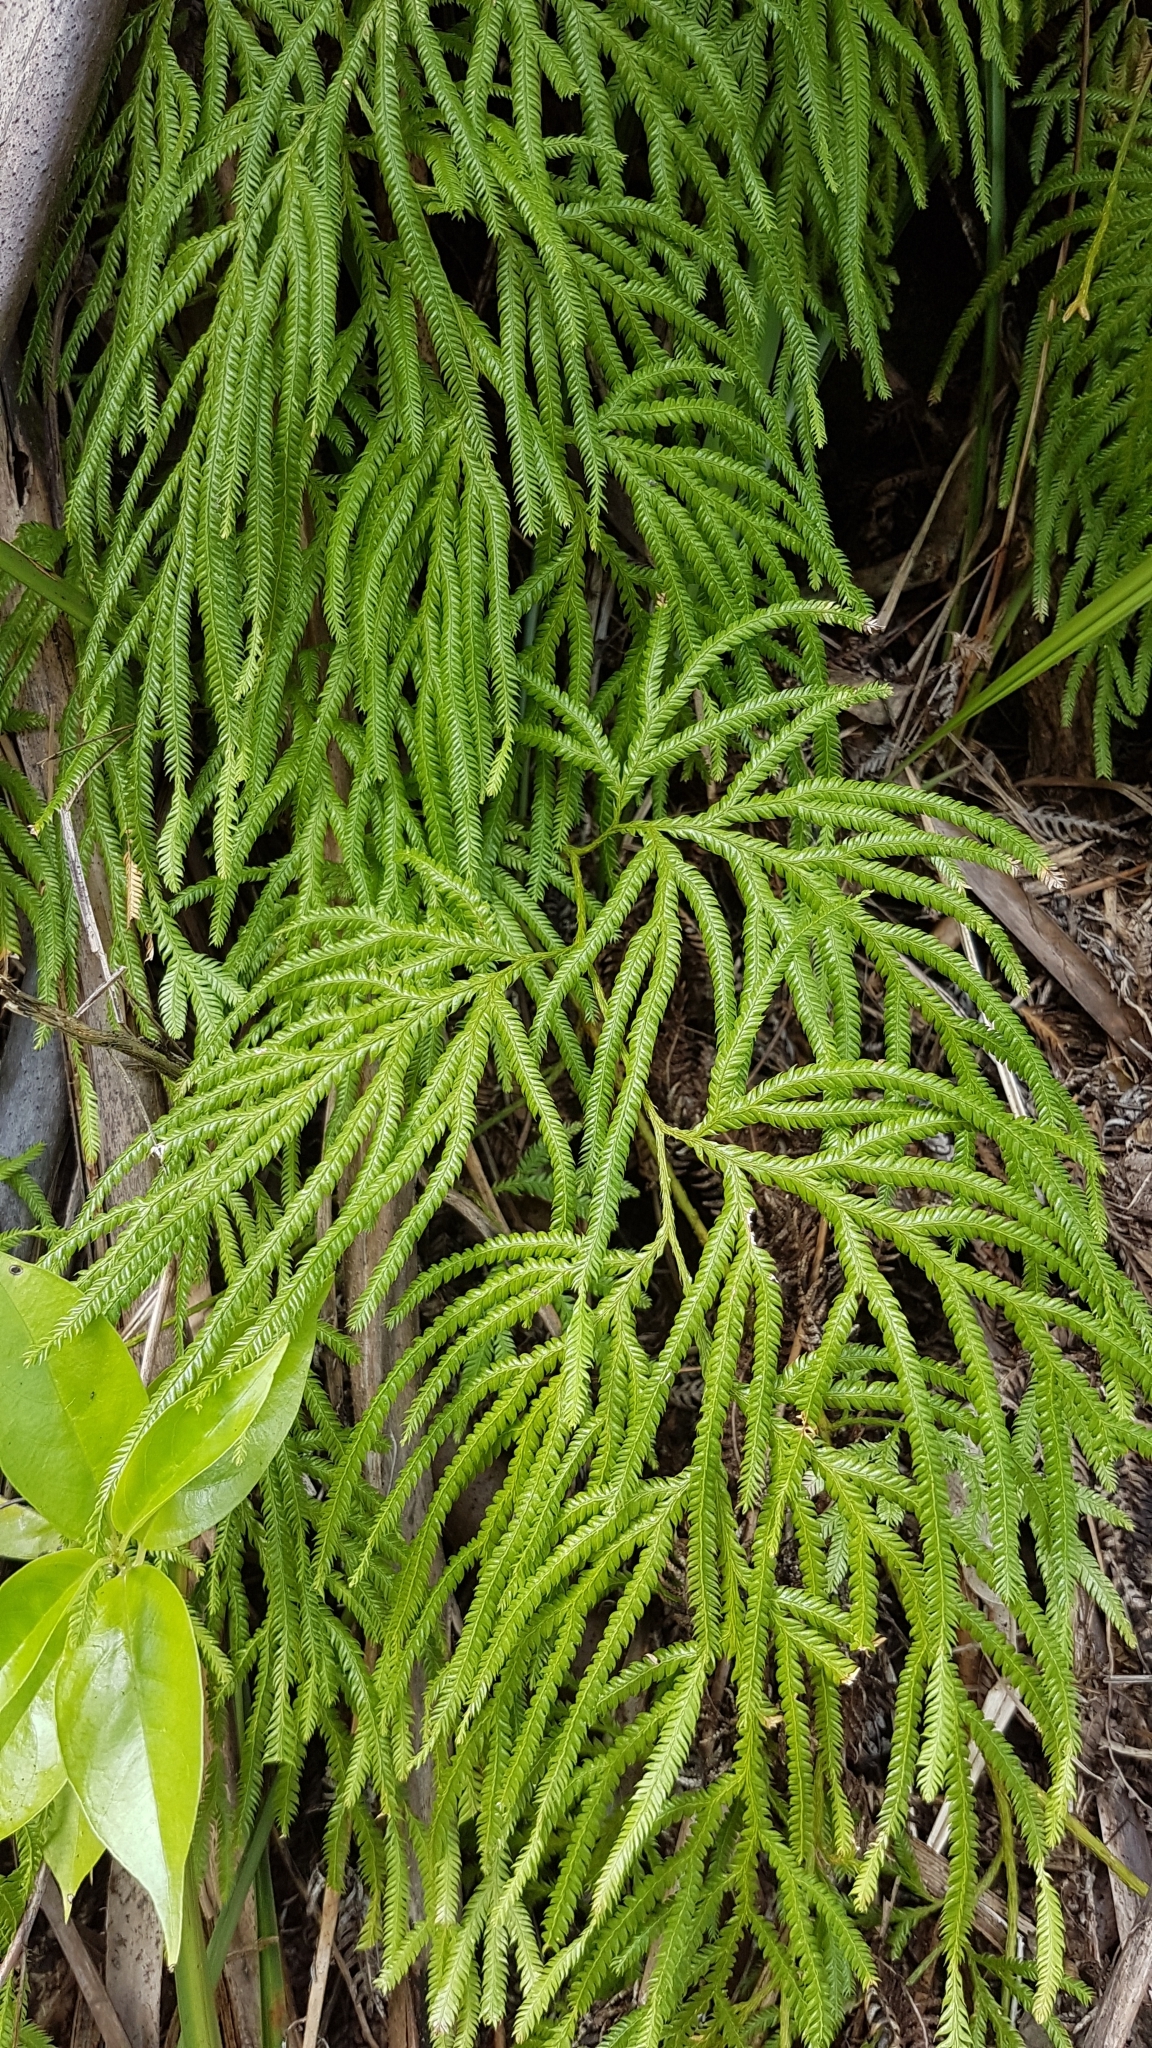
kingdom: Plantae
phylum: Tracheophyta
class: Lycopodiopsida
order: Lycopodiales
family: Lycopodiaceae
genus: Lycopodium
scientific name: Lycopodium volubile
